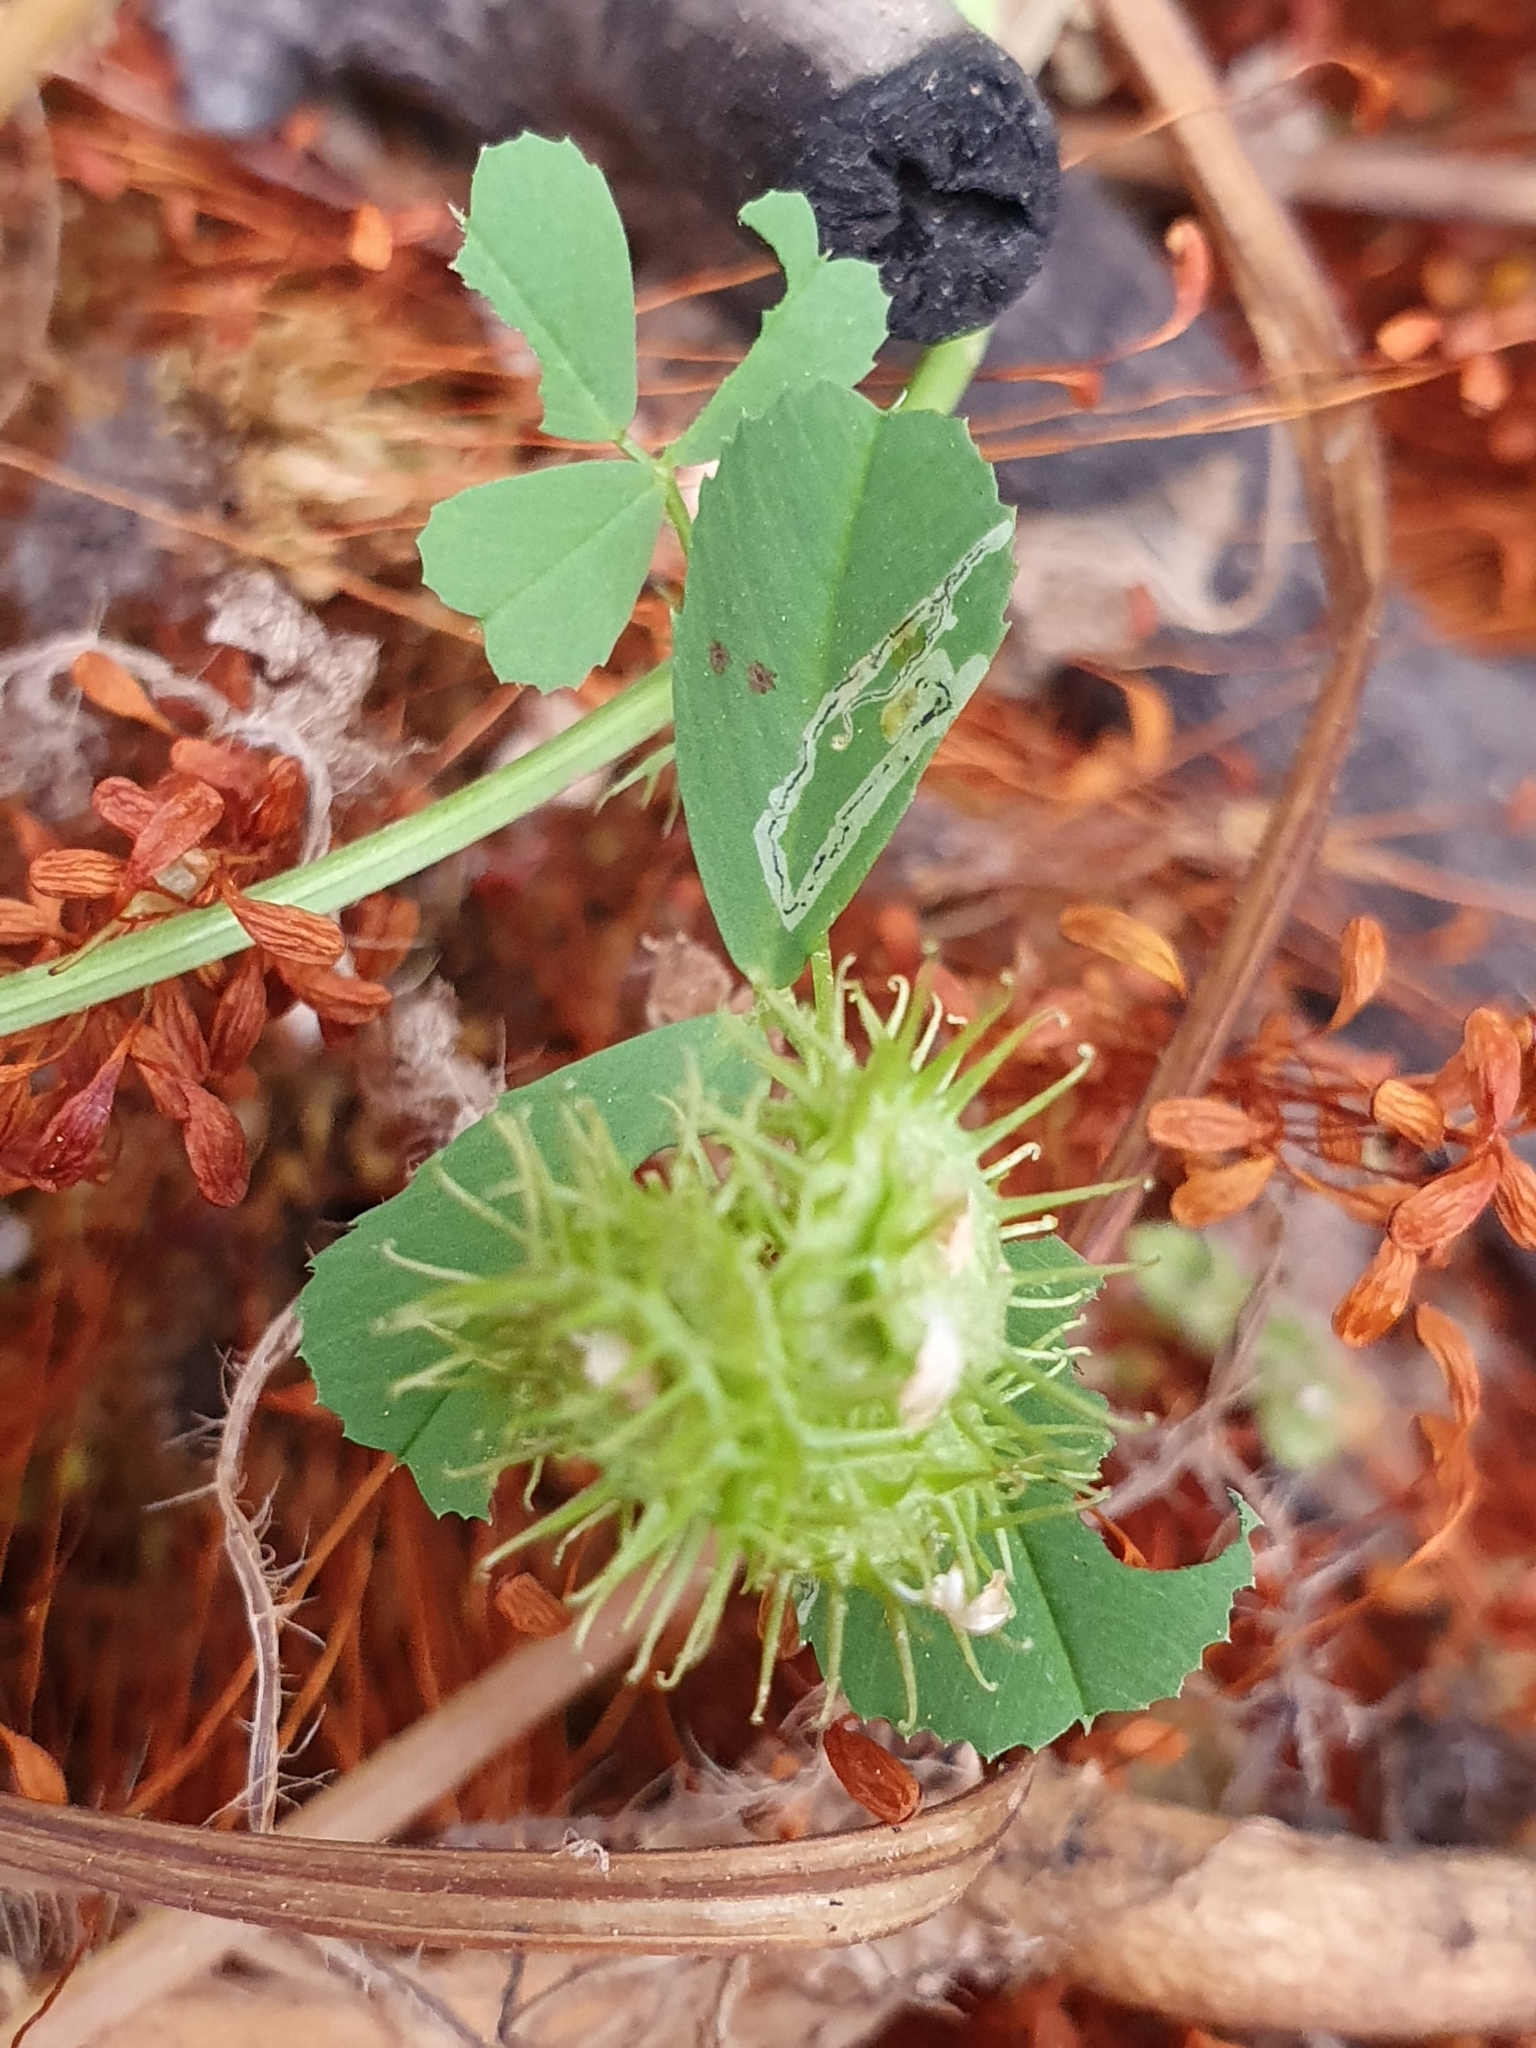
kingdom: Plantae
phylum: Tracheophyta
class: Magnoliopsida
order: Fabales
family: Fabaceae
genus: Medicago
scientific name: Medicago polymorpha
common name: Burclover
